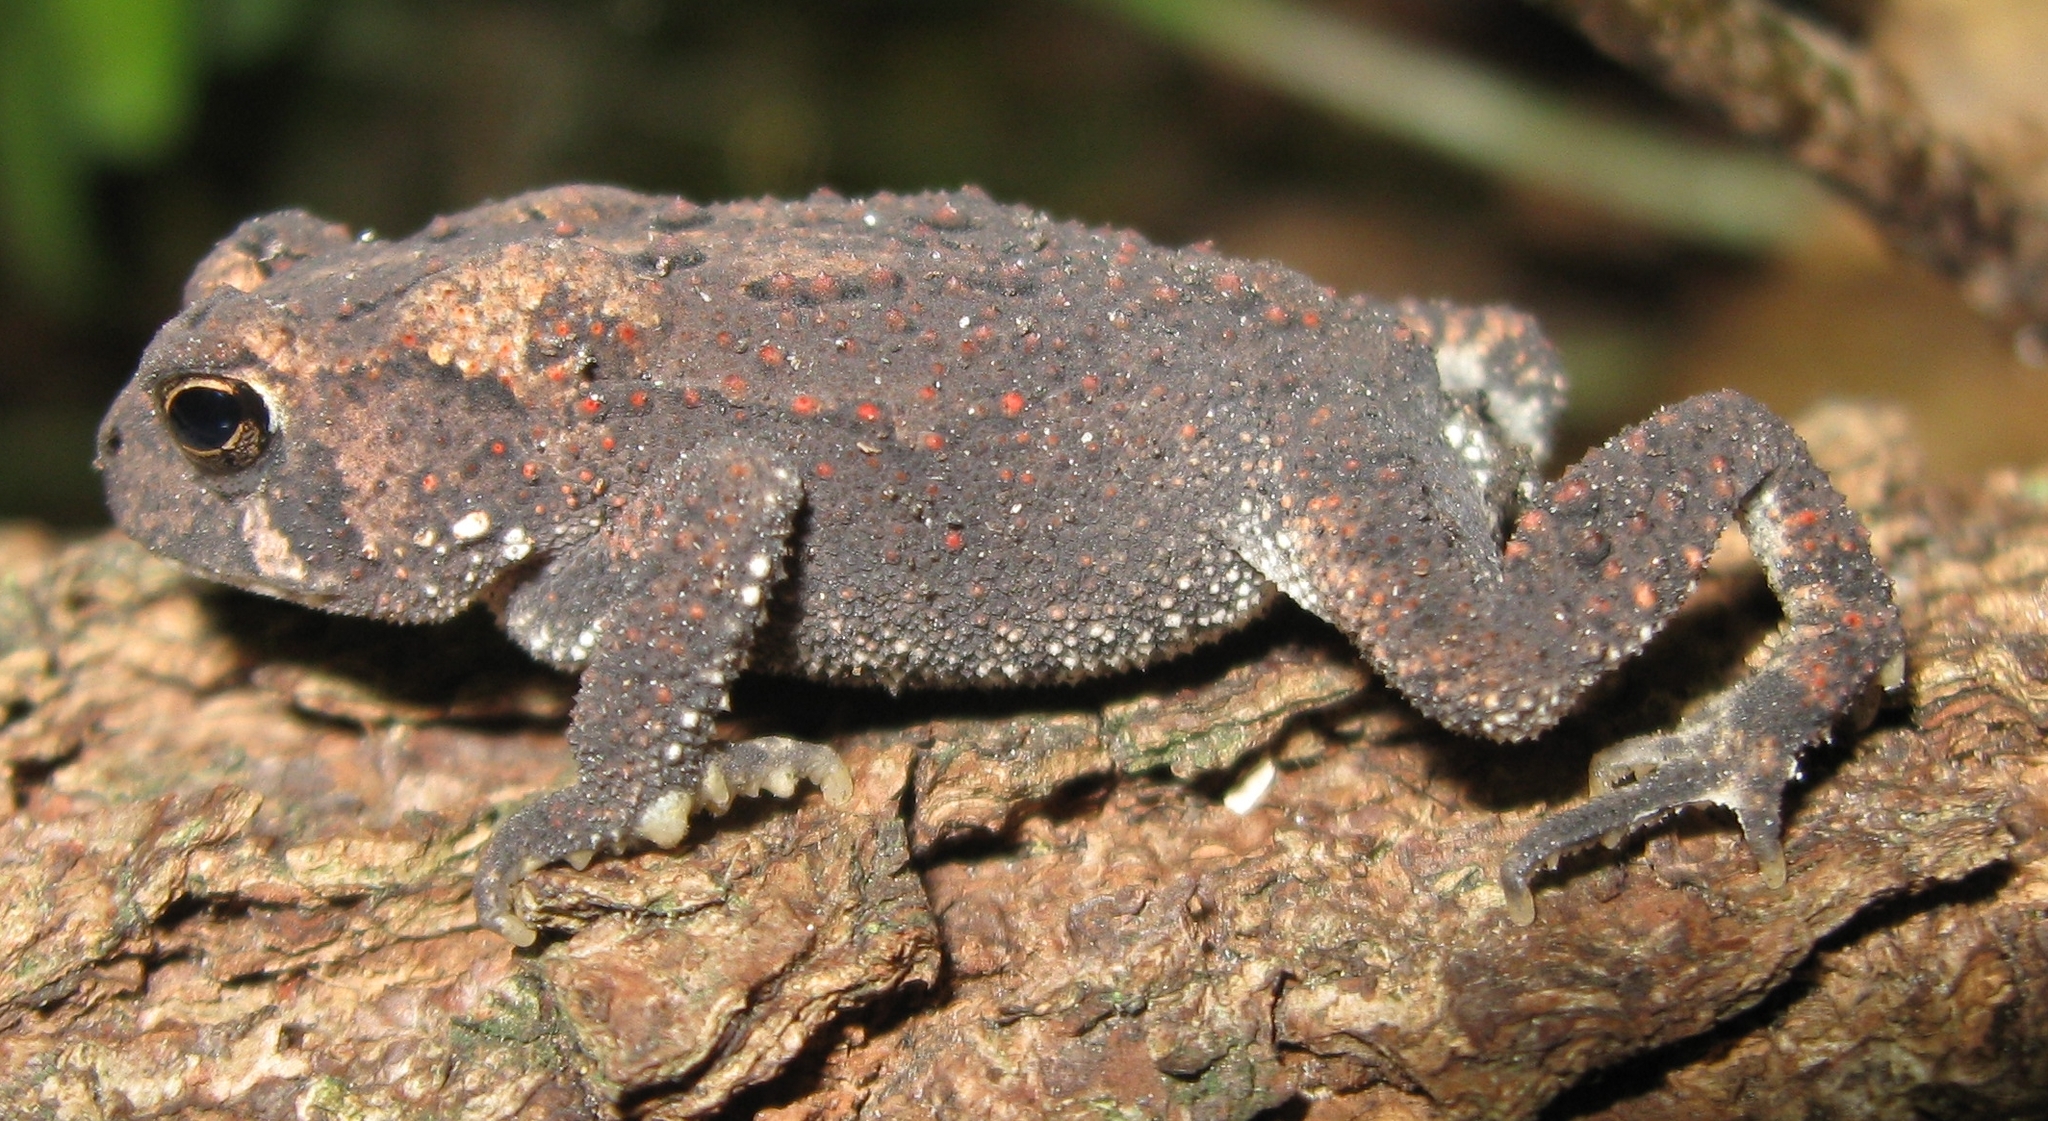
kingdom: Animalia
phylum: Chordata
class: Amphibia
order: Anura
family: Bufonidae
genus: Anaxyrus
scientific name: Anaxyrus americanus
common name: American toad
